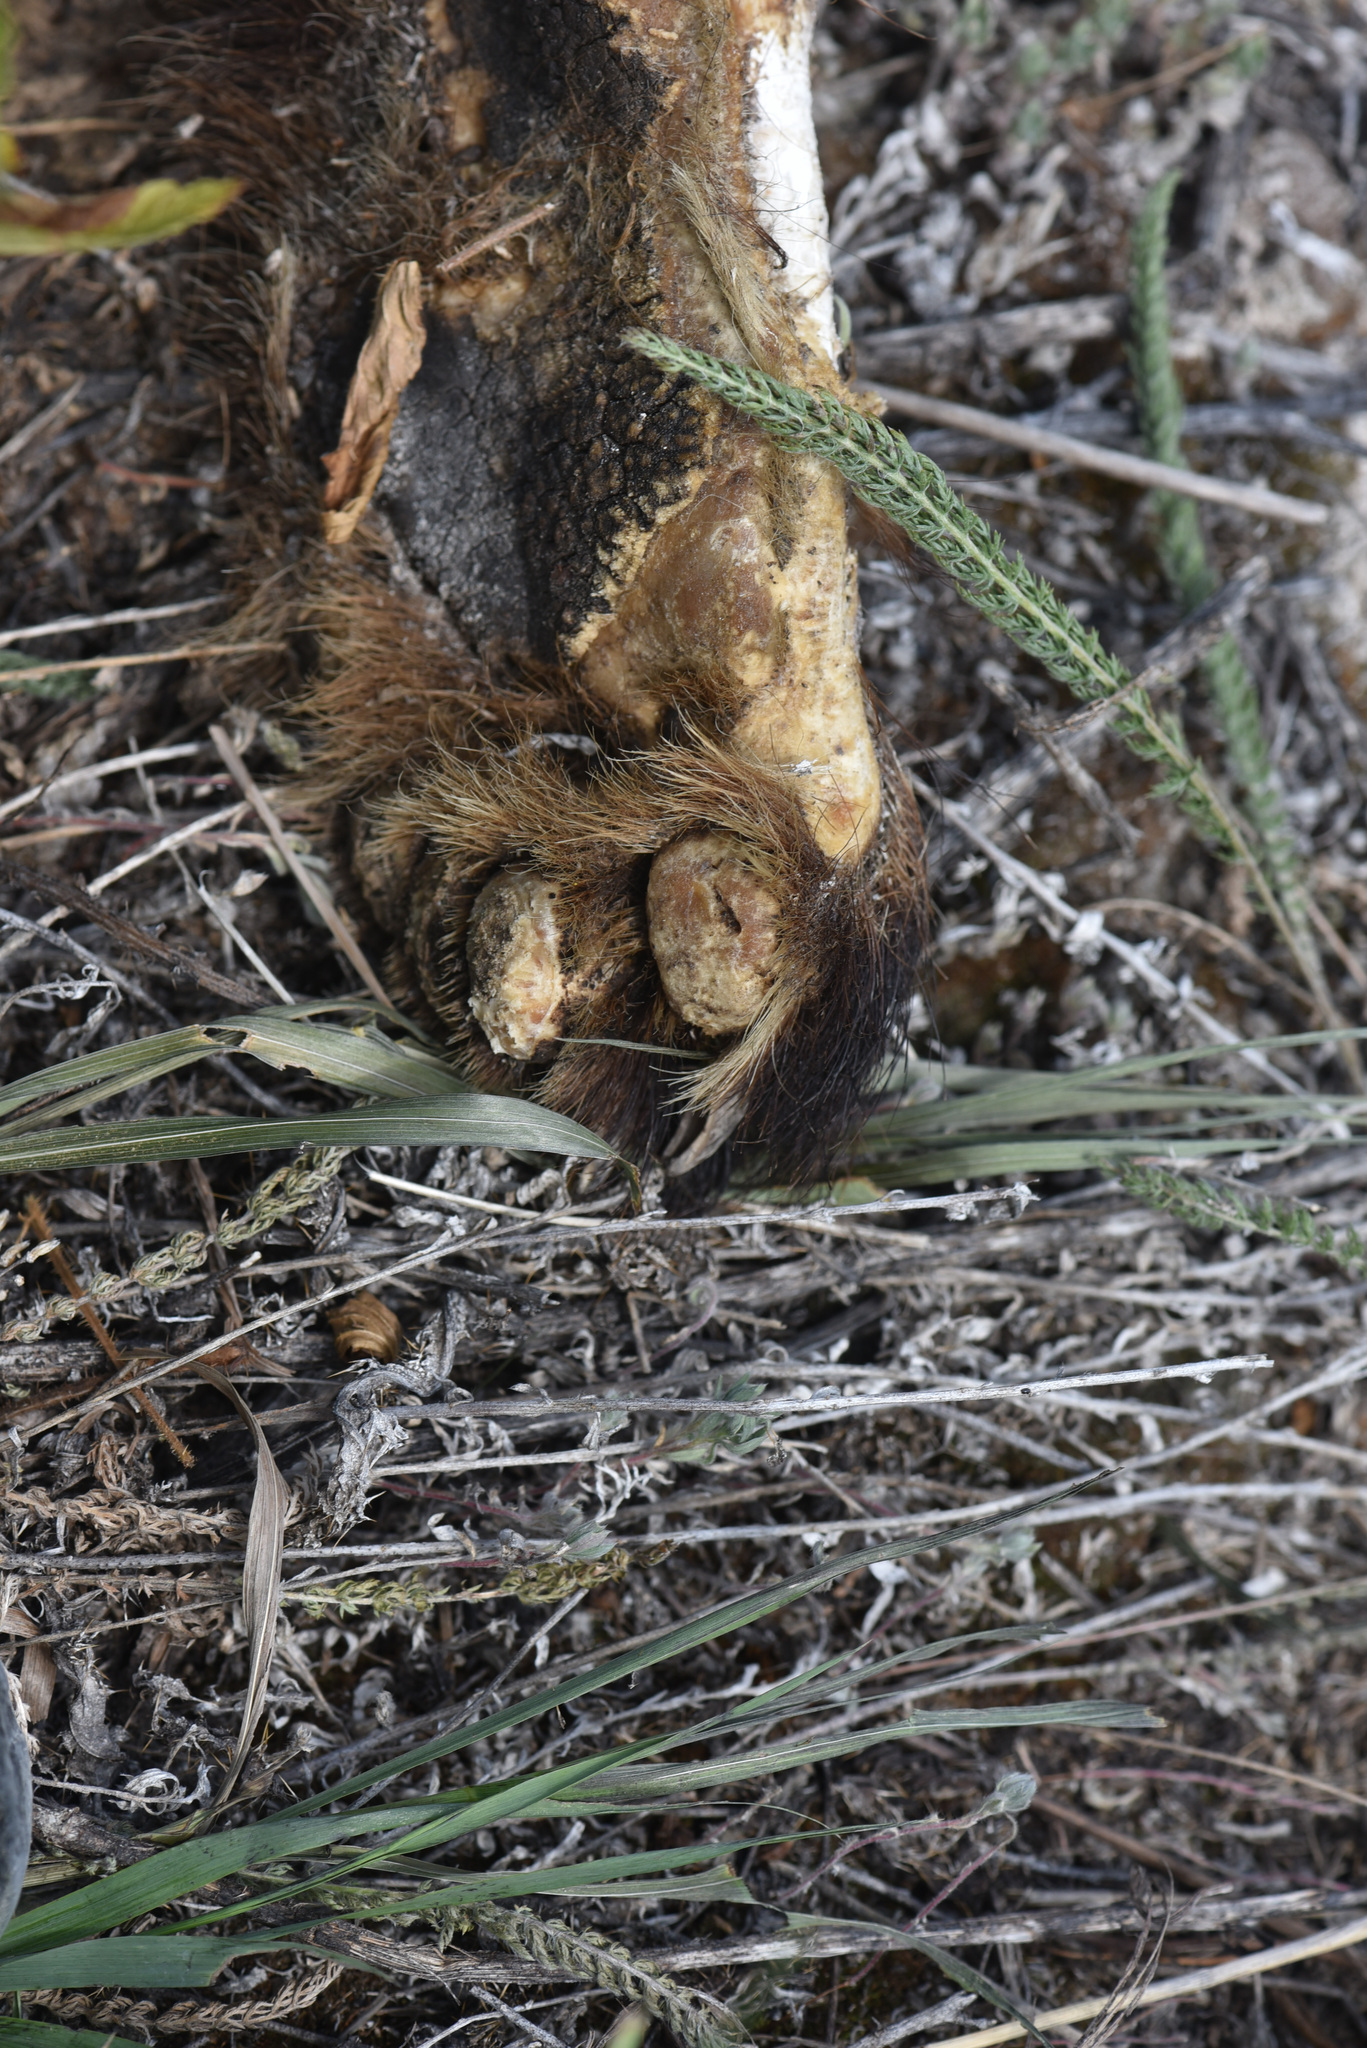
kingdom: Animalia
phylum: Chordata
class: Mammalia
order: Carnivora
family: Ursidae
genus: Ursus
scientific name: Ursus americanus
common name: American black bear
